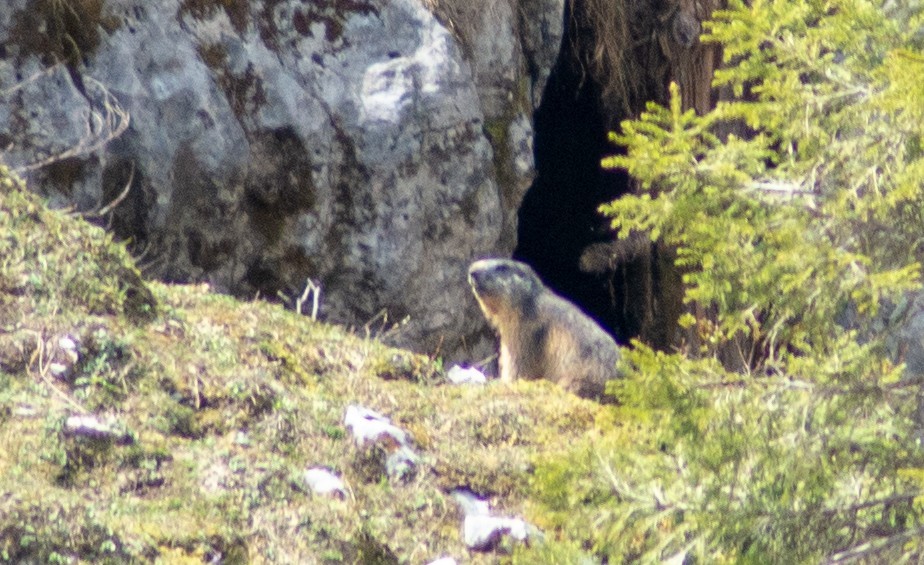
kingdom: Animalia
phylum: Chordata
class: Mammalia
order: Rodentia
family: Sciuridae
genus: Marmota
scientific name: Marmota marmota
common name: Alpine marmot
